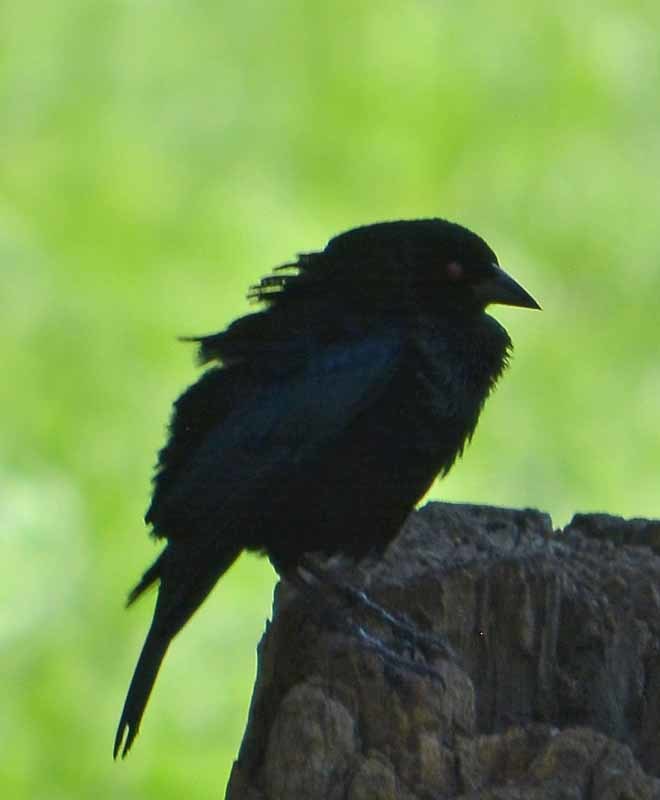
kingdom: Animalia
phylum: Chordata
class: Aves
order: Passeriformes
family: Icteridae
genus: Molothrus
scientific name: Molothrus aeneus
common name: Bronzed cowbird
